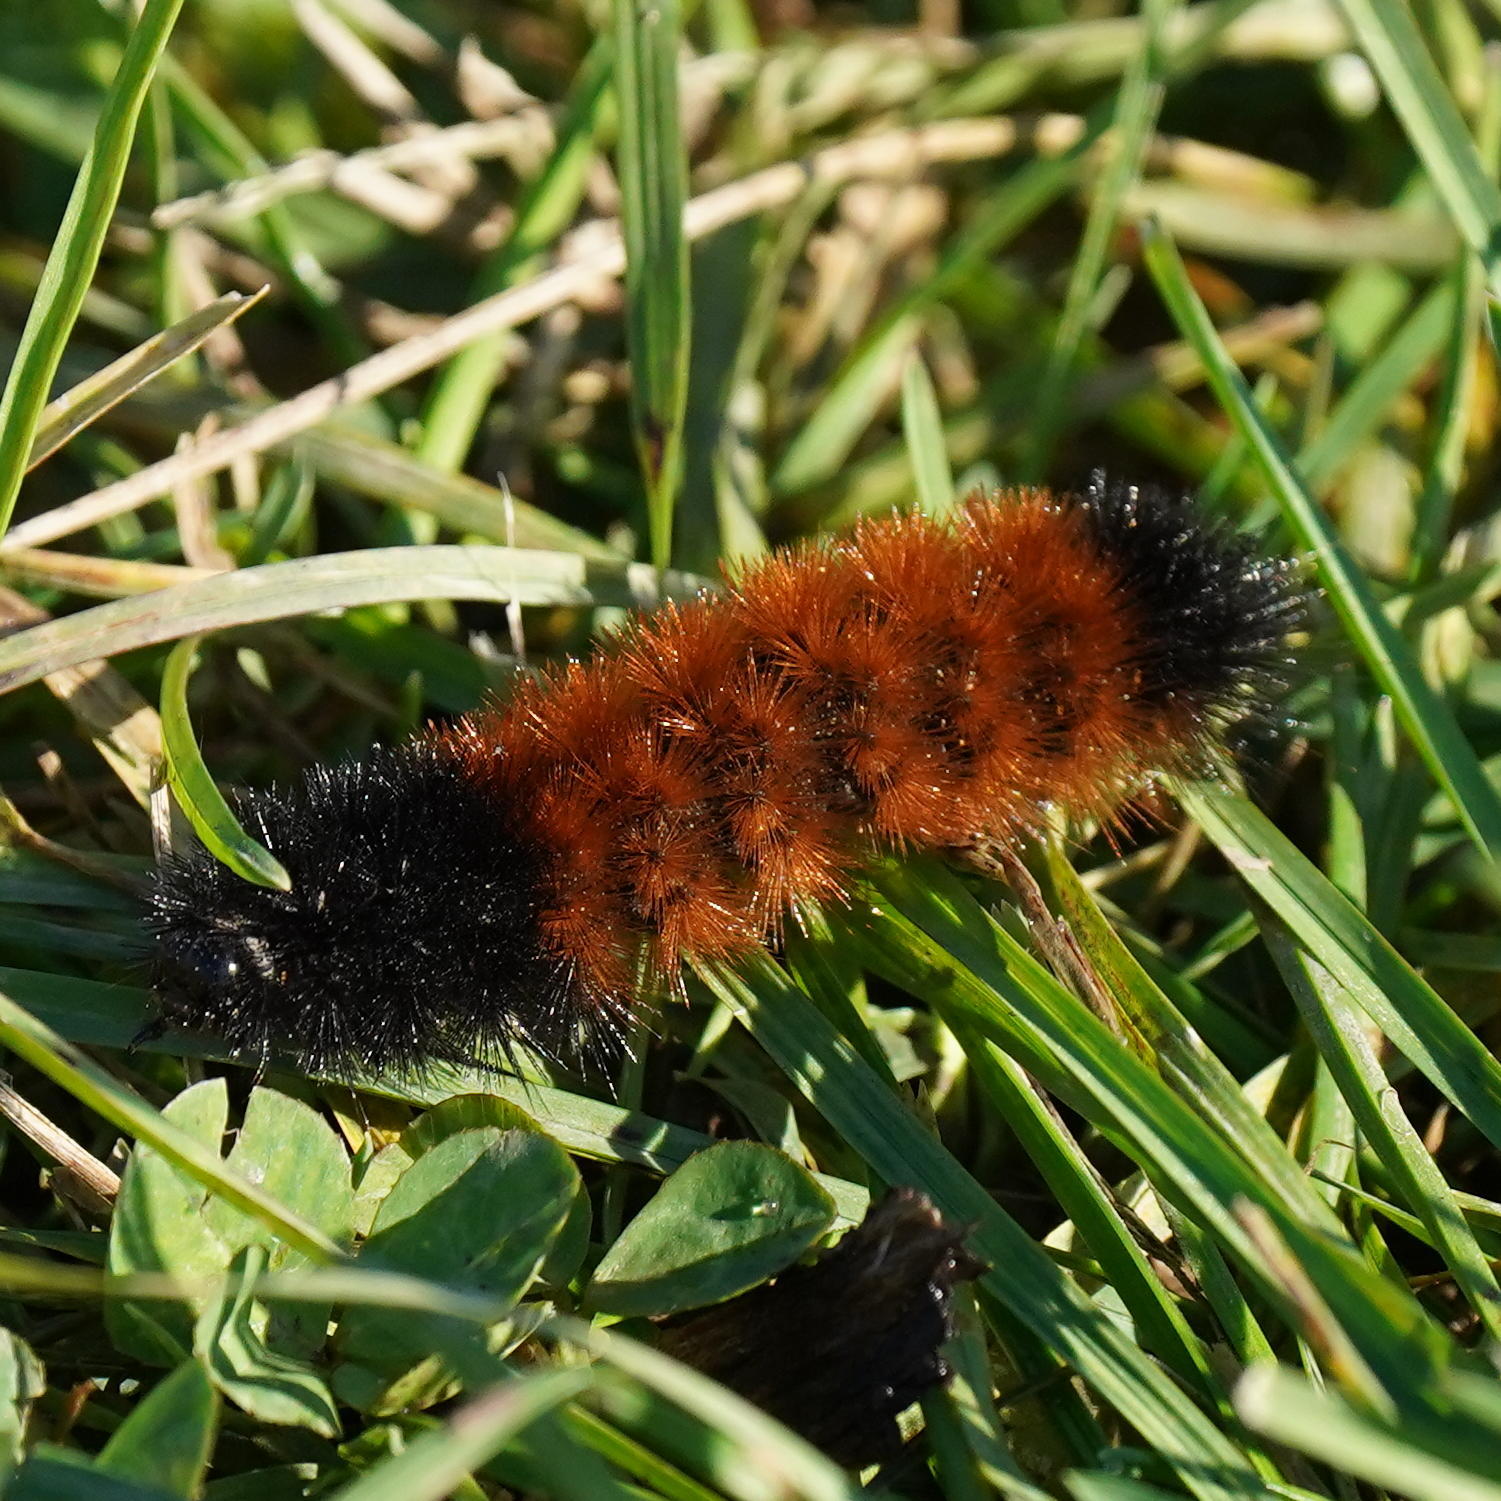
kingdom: Animalia
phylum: Arthropoda
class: Insecta
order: Lepidoptera
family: Erebidae
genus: Pyrrharctia
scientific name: Pyrrharctia isabella
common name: Isabella tiger moth
